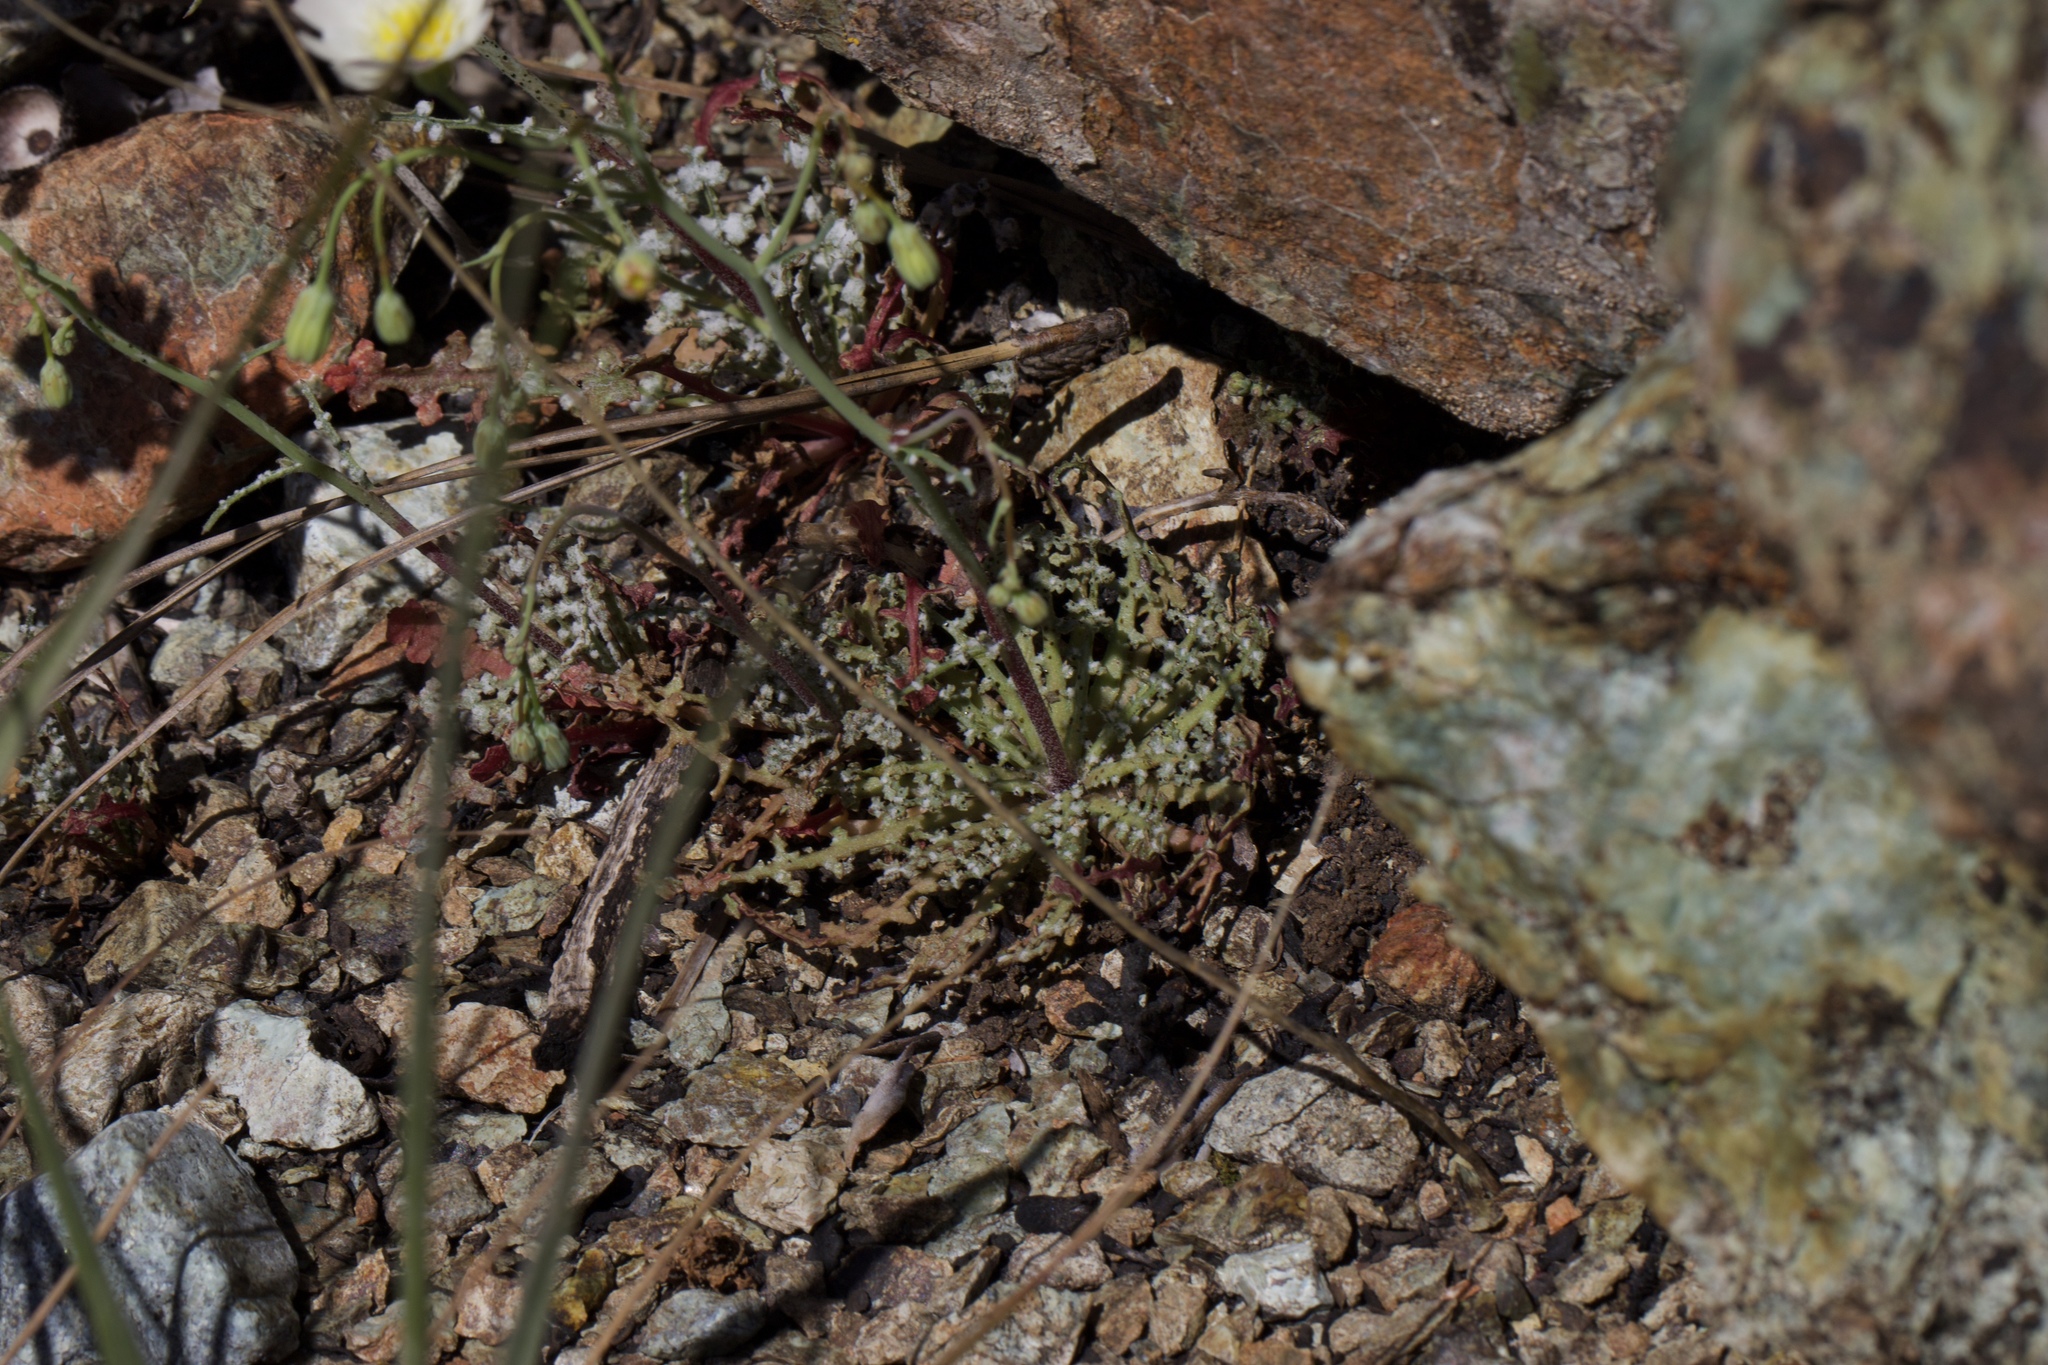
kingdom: Plantae
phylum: Tracheophyta
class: Magnoliopsida
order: Asterales
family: Asteraceae
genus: Malacothrix
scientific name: Malacothrix floccifera
